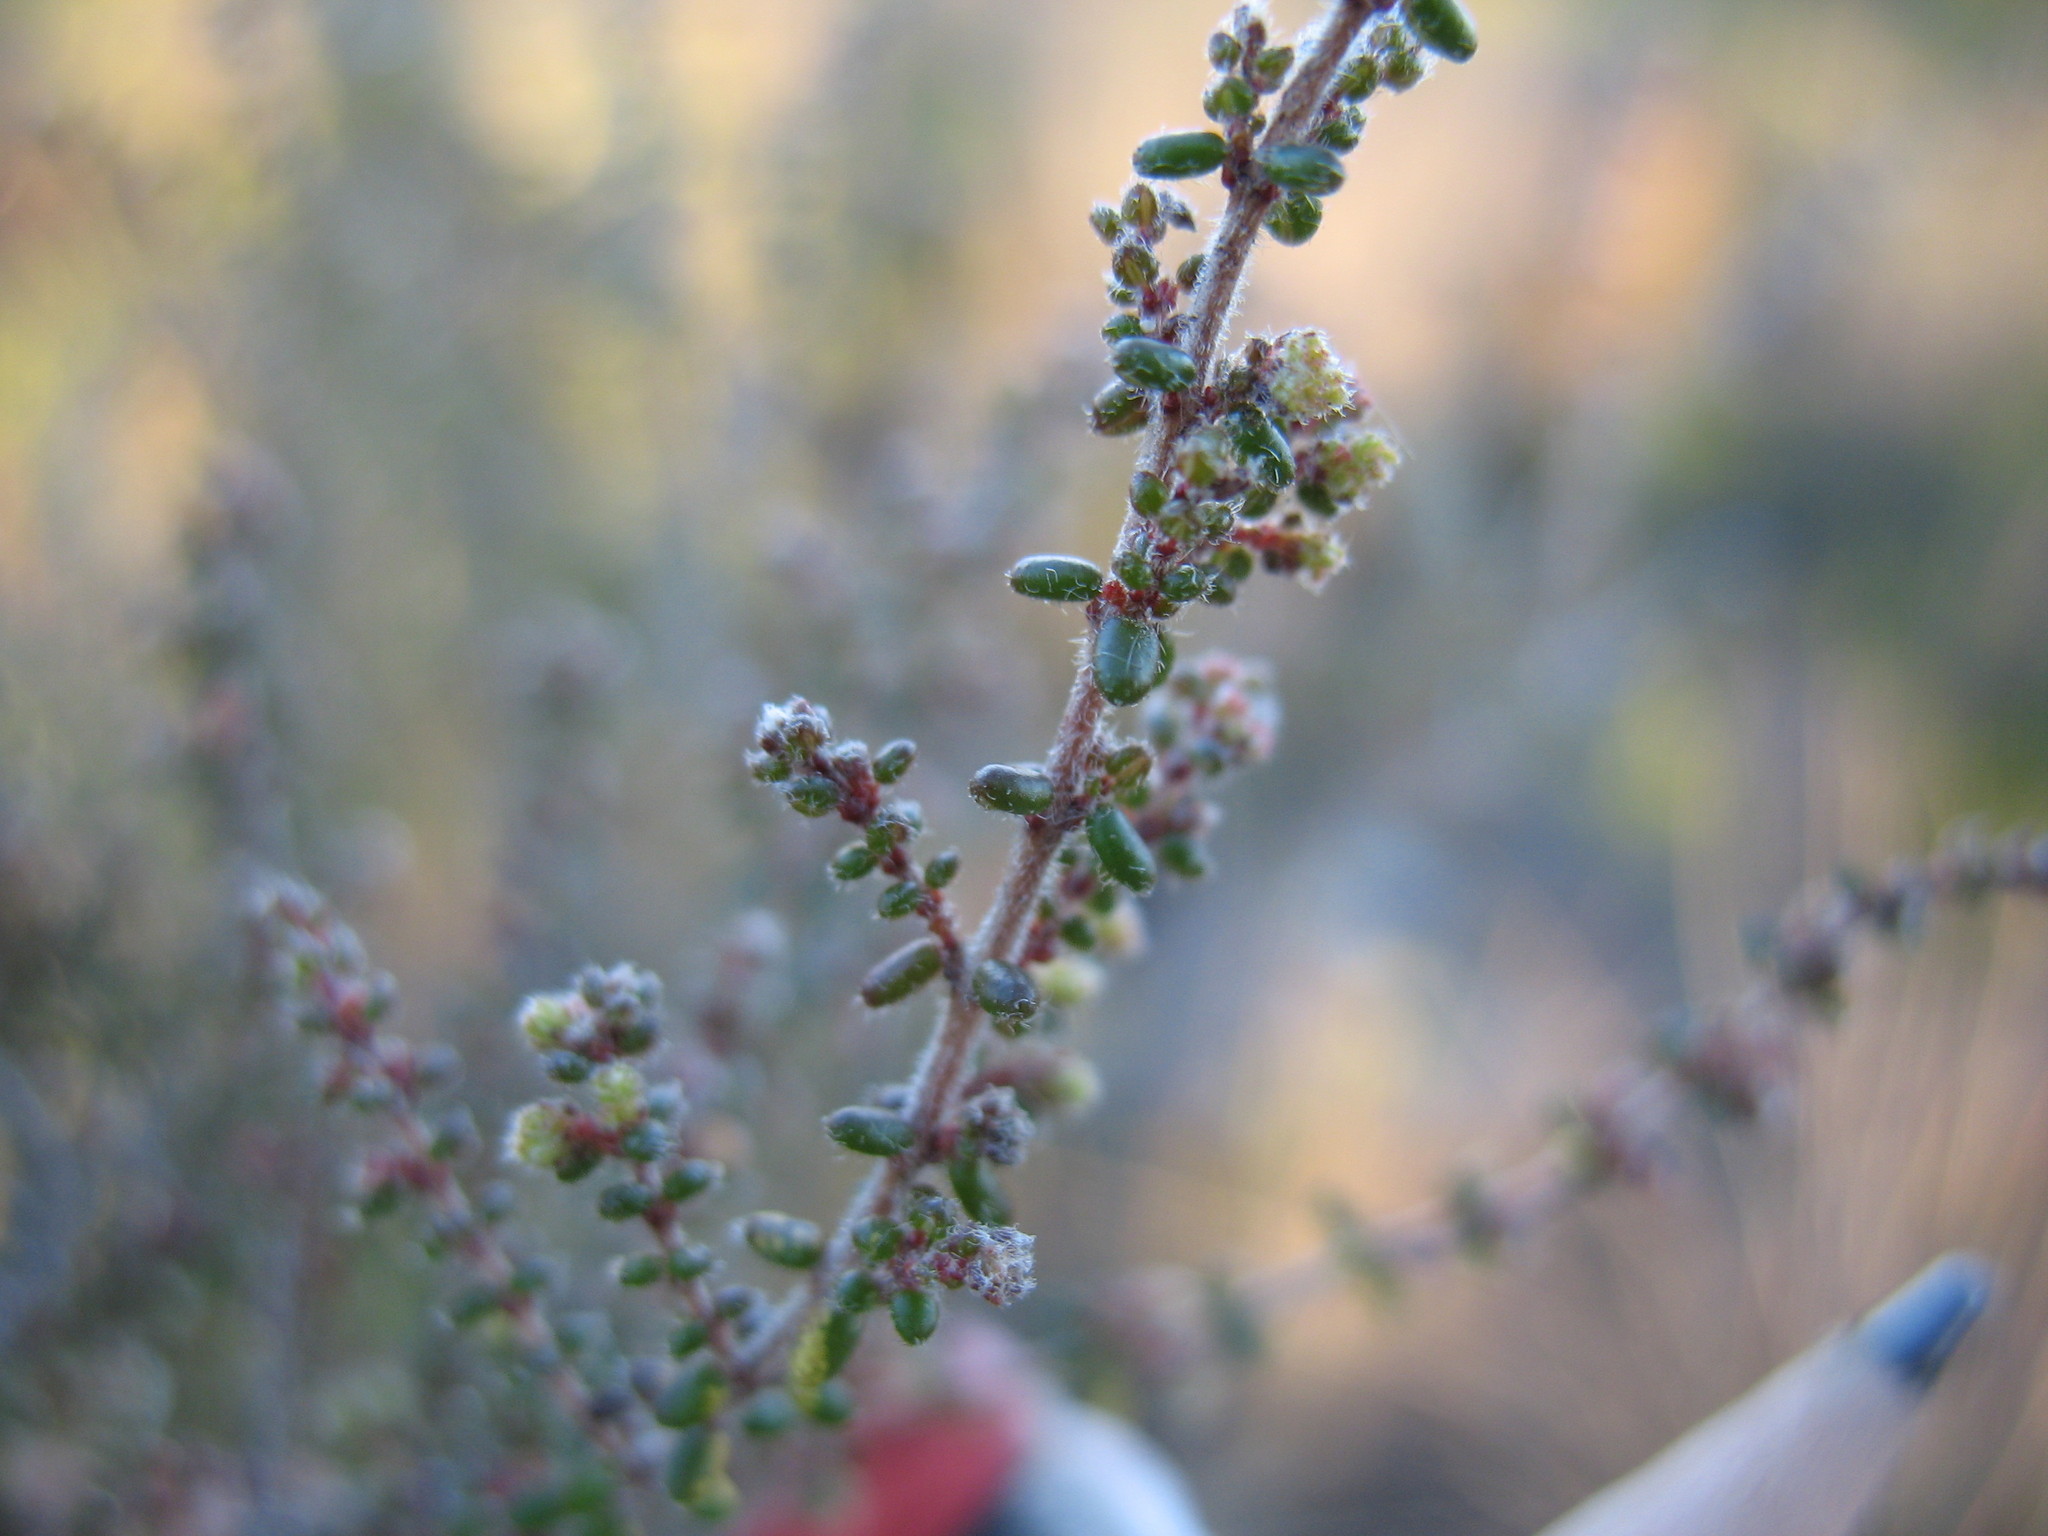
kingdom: Plantae
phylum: Tracheophyta
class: Magnoliopsida
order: Ericales
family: Ericaceae
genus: Erica
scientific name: Erica vernicosa
